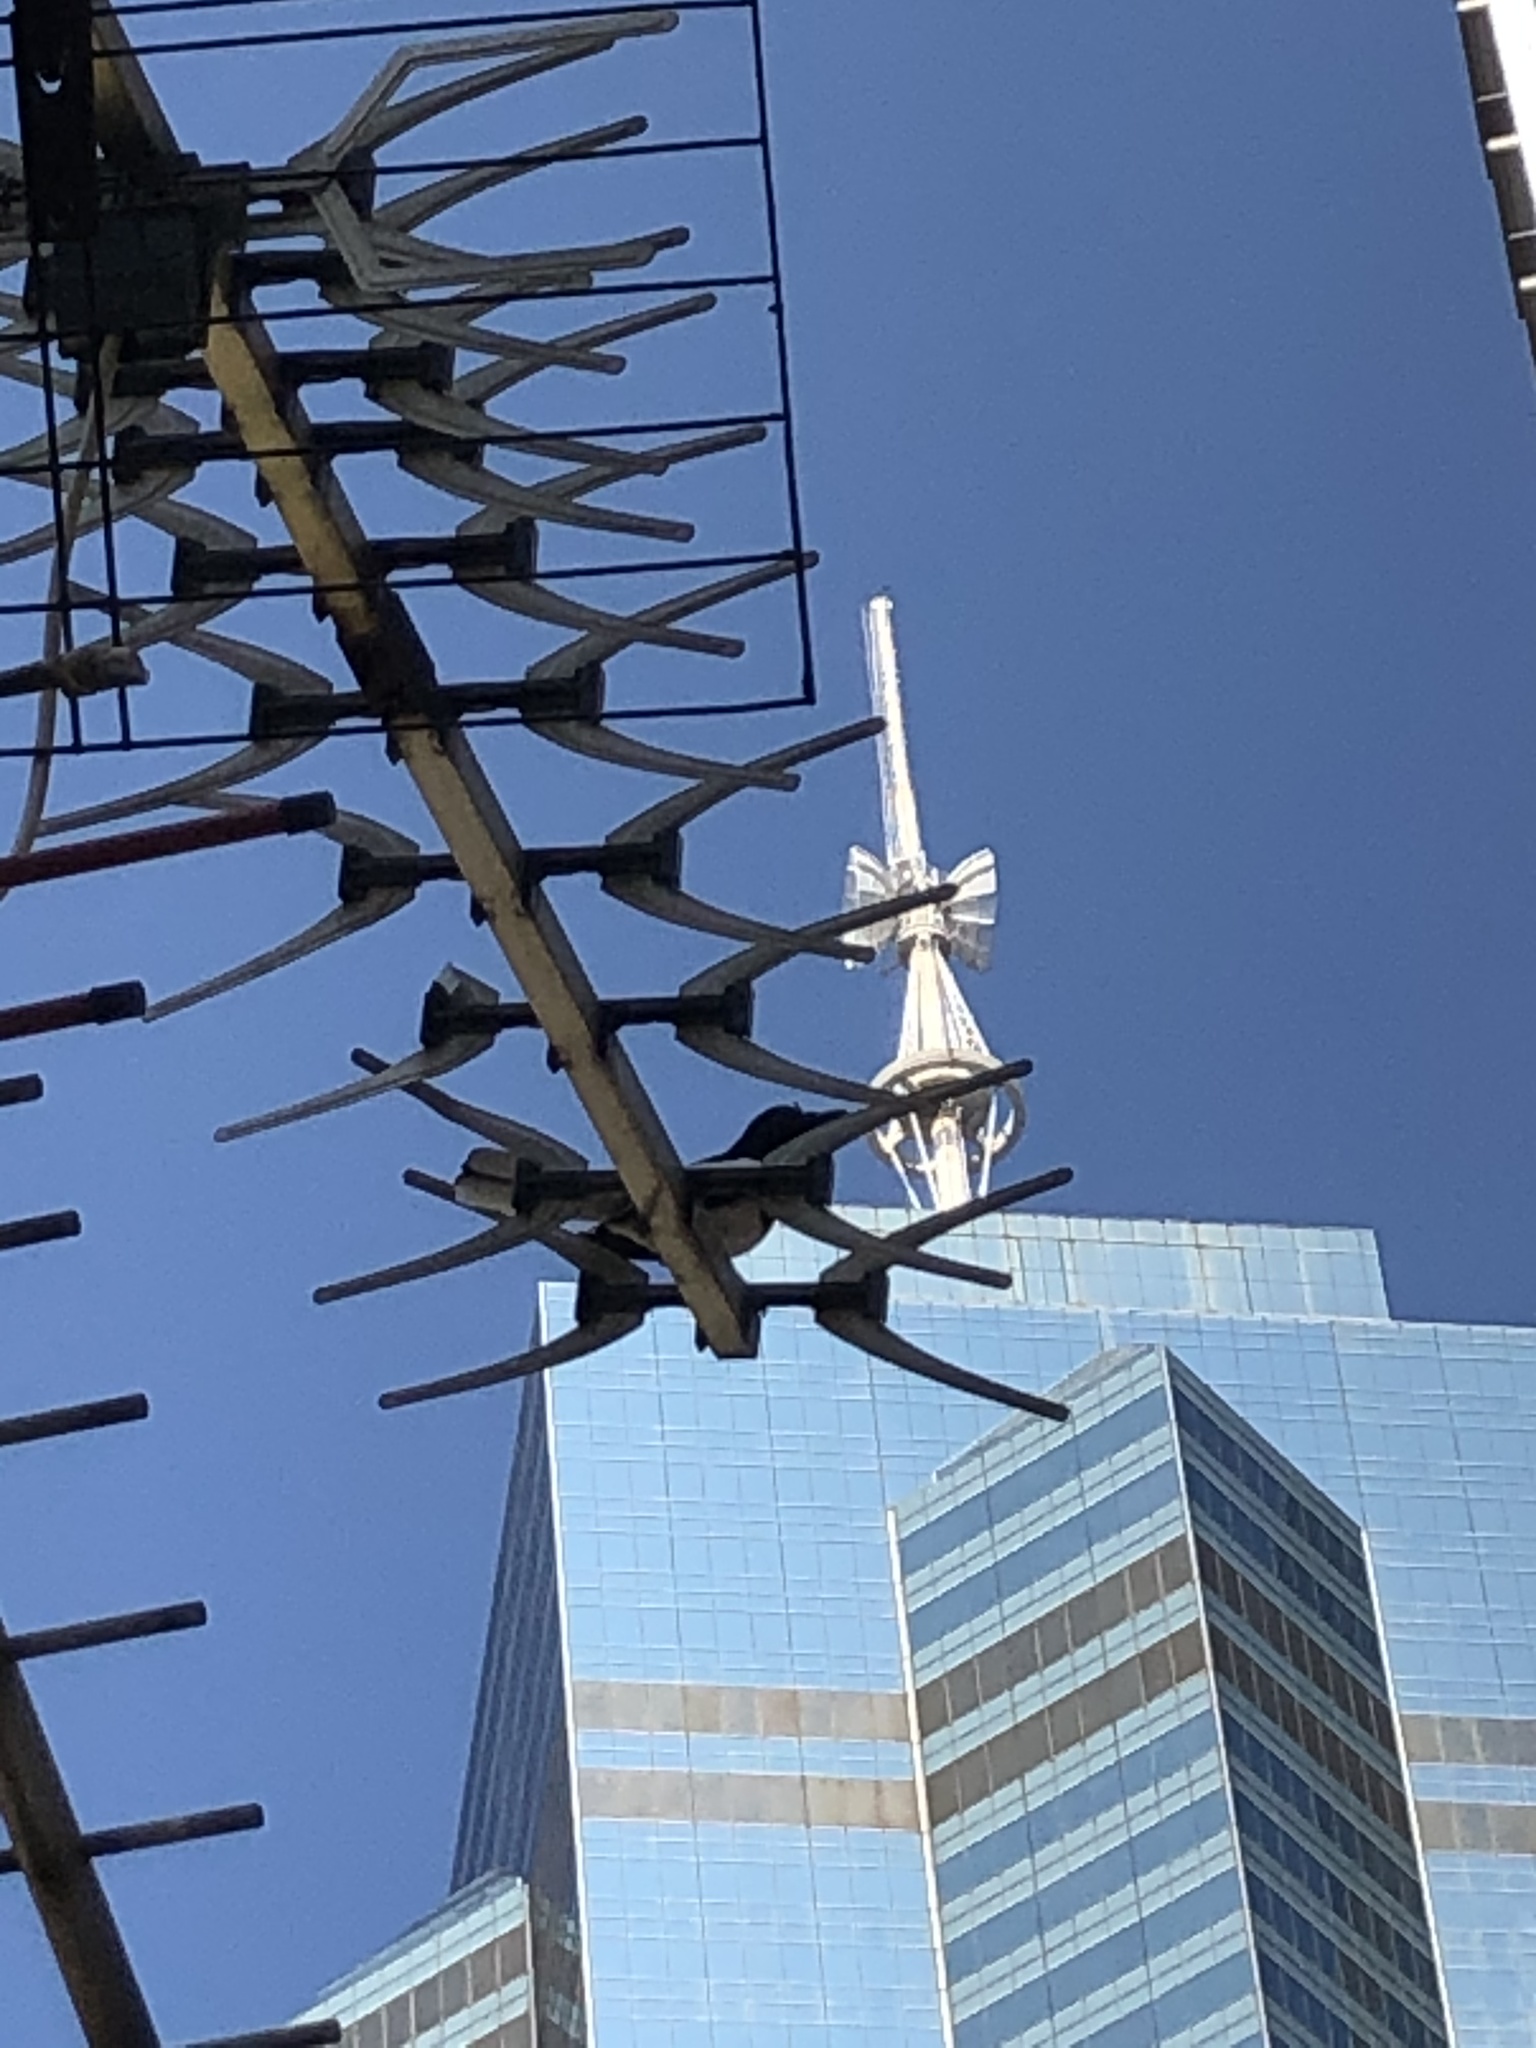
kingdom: Animalia
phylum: Chordata
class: Aves
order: Passeriformes
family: Muscicapidae
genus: Copsychus
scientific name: Copsychus saularis
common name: Oriental magpie-robin
